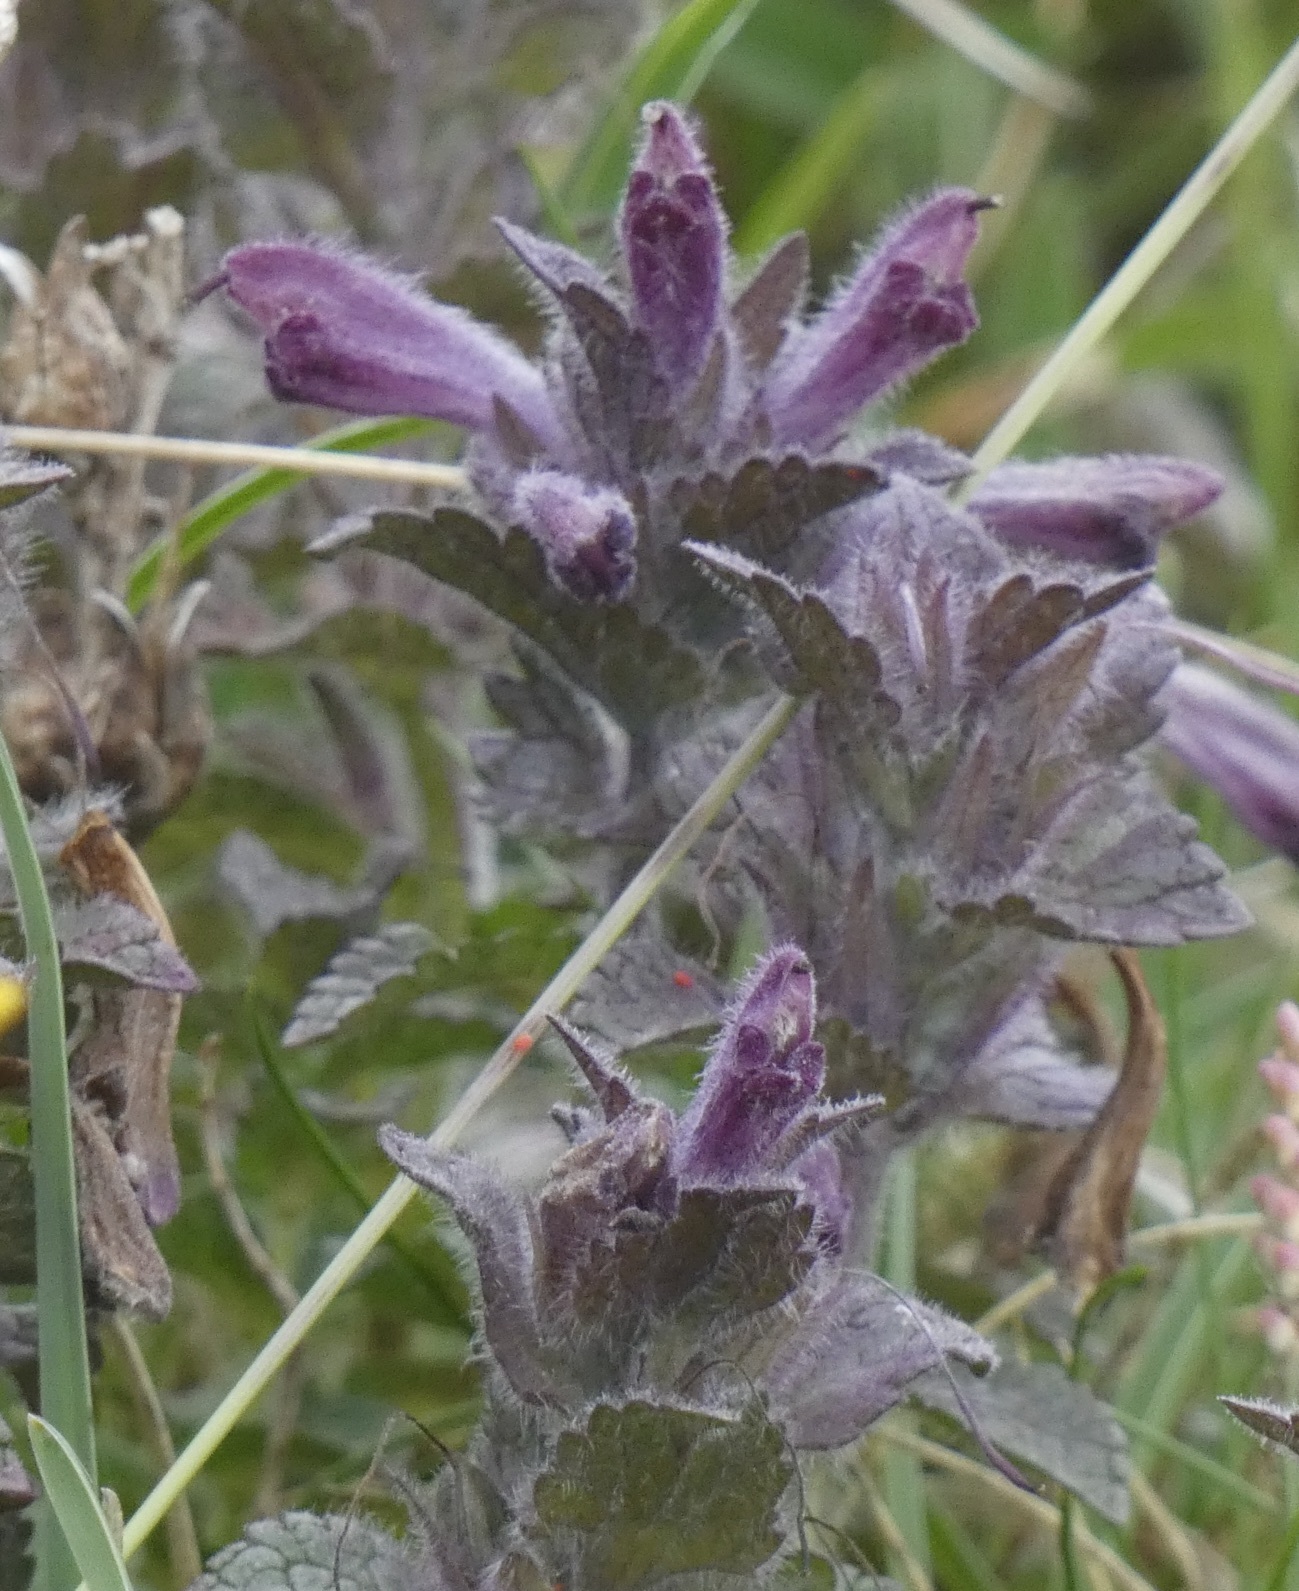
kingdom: Plantae
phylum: Tracheophyta
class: Magnoliopsida
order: Lamiales
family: Orobanchaceae
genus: Bartsia
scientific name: Bartsia alpina
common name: Alpine bartsia
